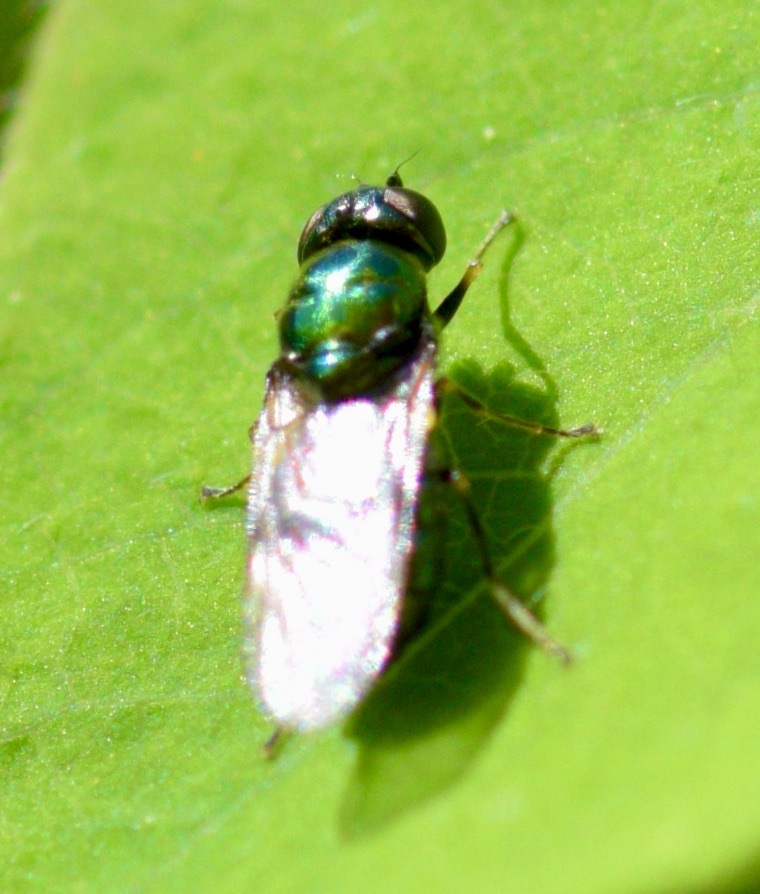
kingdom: Animalia
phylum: Arthropoda
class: Insecta
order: Diptera
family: Stratiomyidae
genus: Microchrysa
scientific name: Microchrysa polita
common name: Black-horned gem
